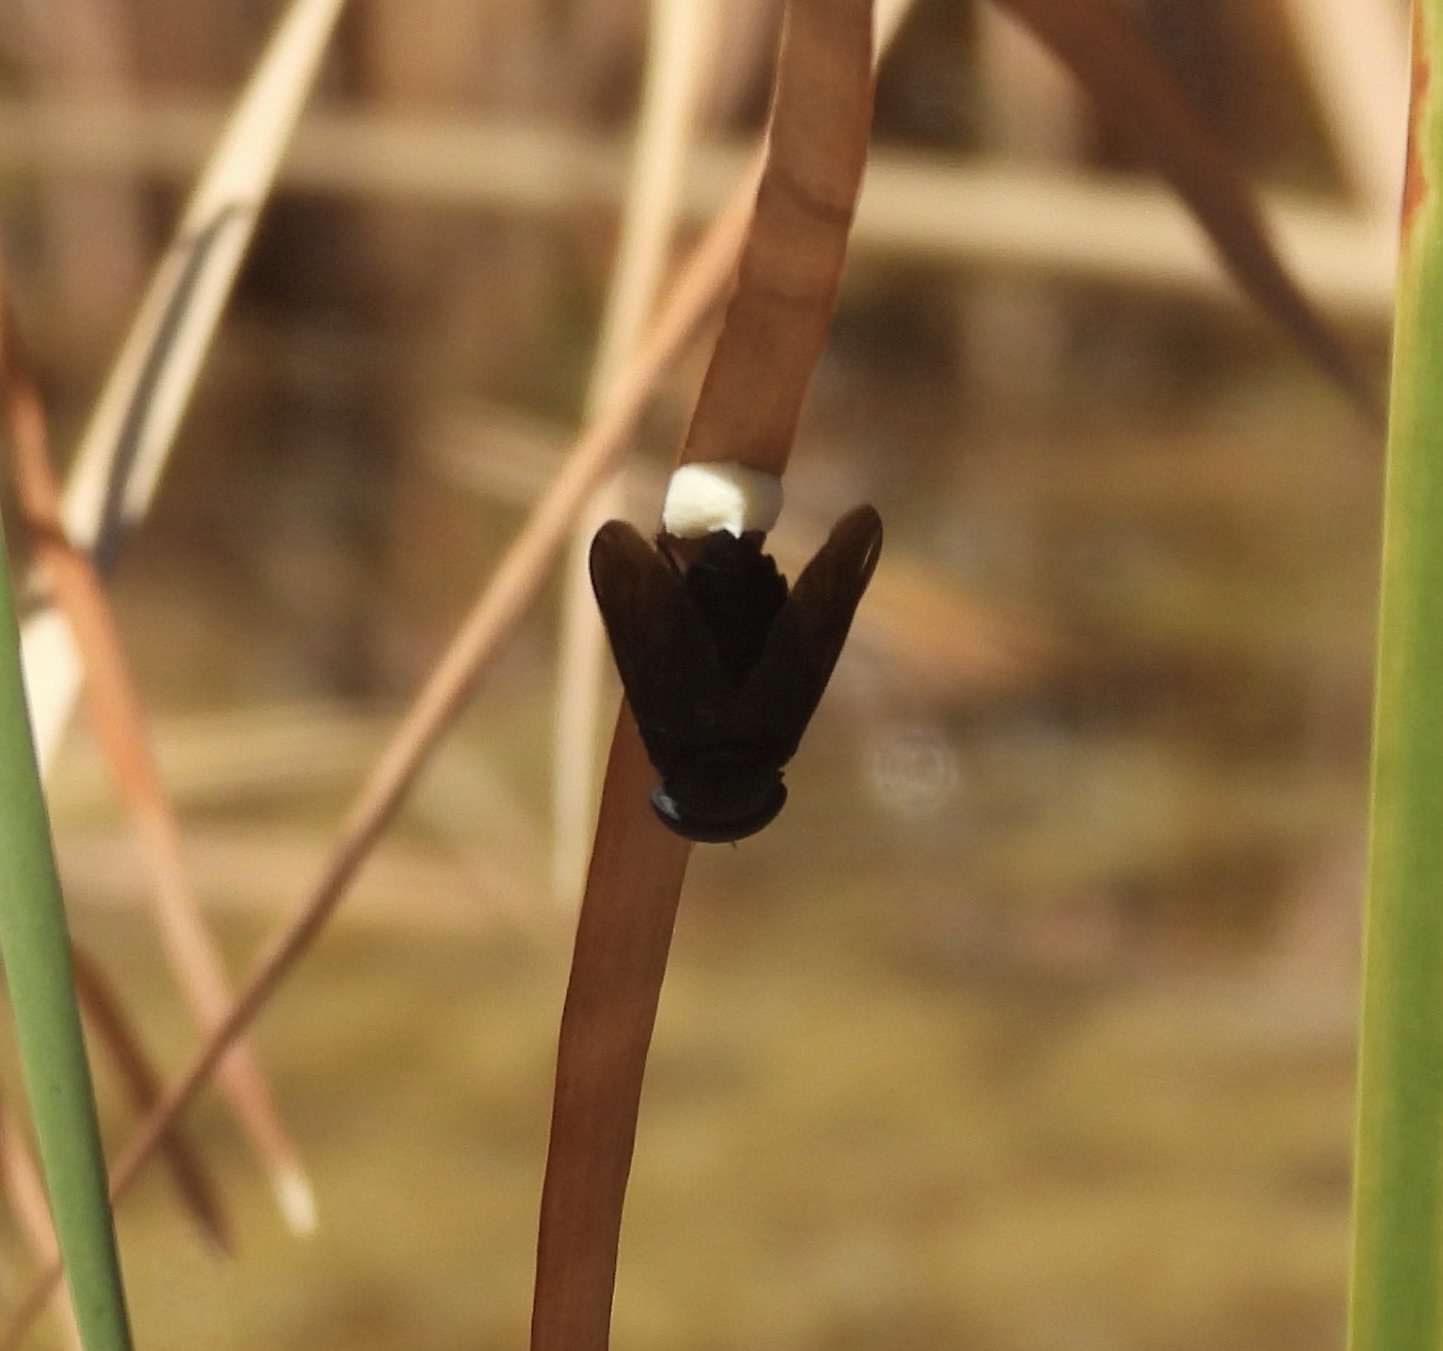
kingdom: Animalia
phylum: Arthropoda
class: Insecta
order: Diptera
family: Tabanidae
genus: Tabanus
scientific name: Tabanus atratus
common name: Black horse fly
